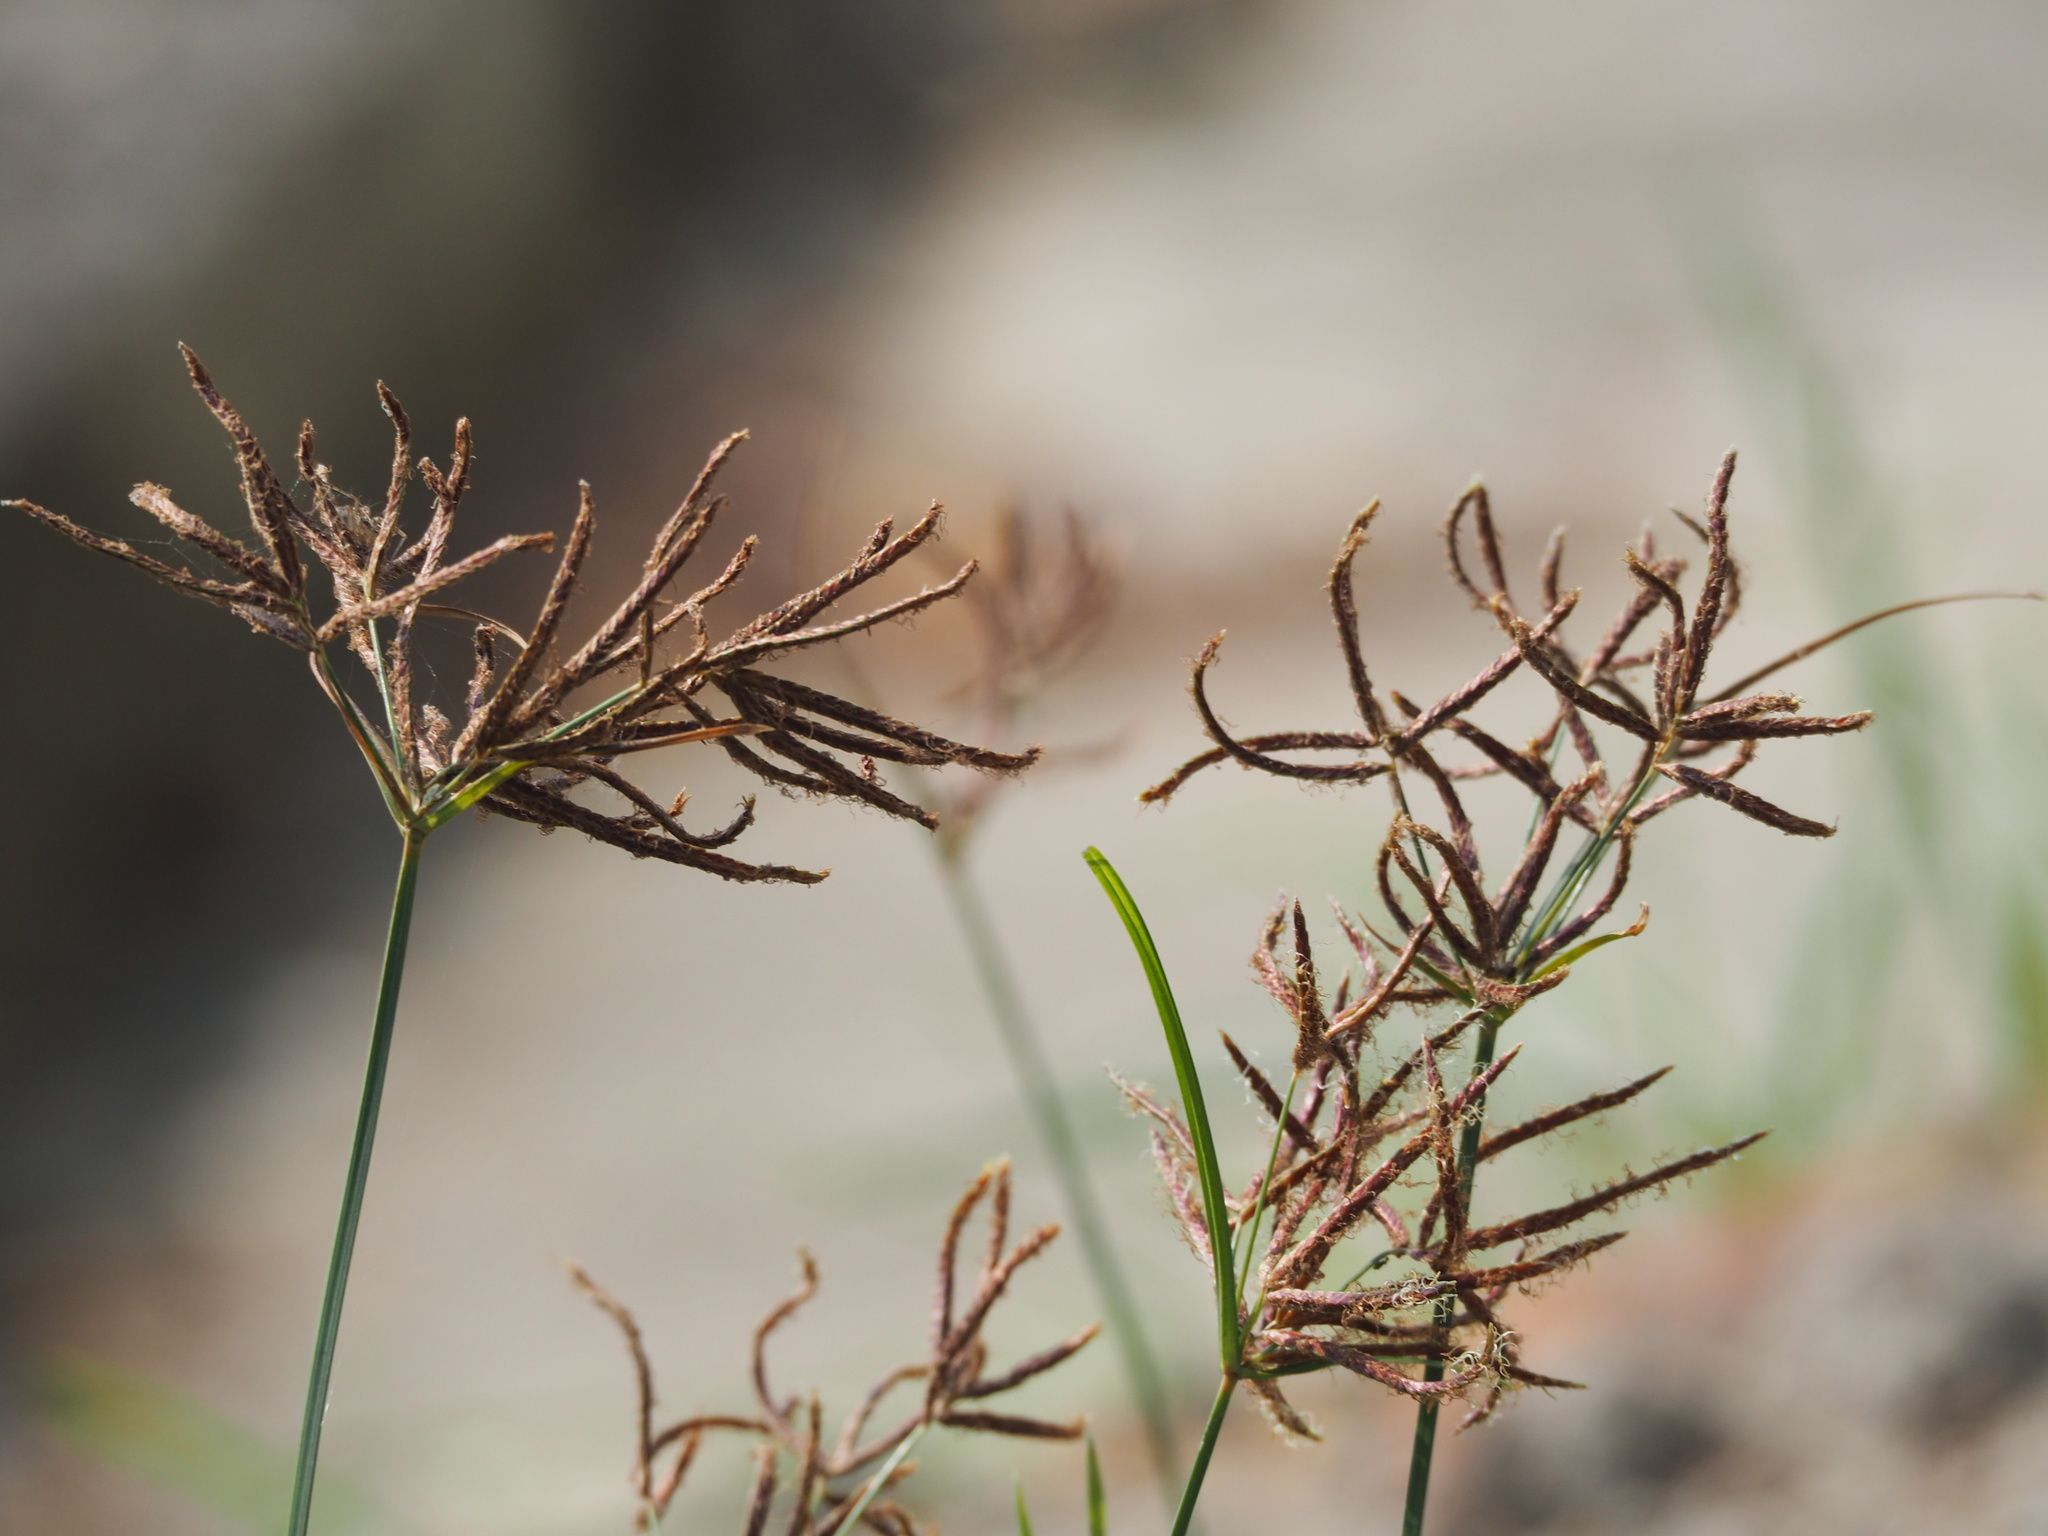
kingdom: Plantae
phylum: Tracheophyta
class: Liliopsida
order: Poales
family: Cyperaceae
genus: Cyperus
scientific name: Cyperus rotundus
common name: Nutgrass
